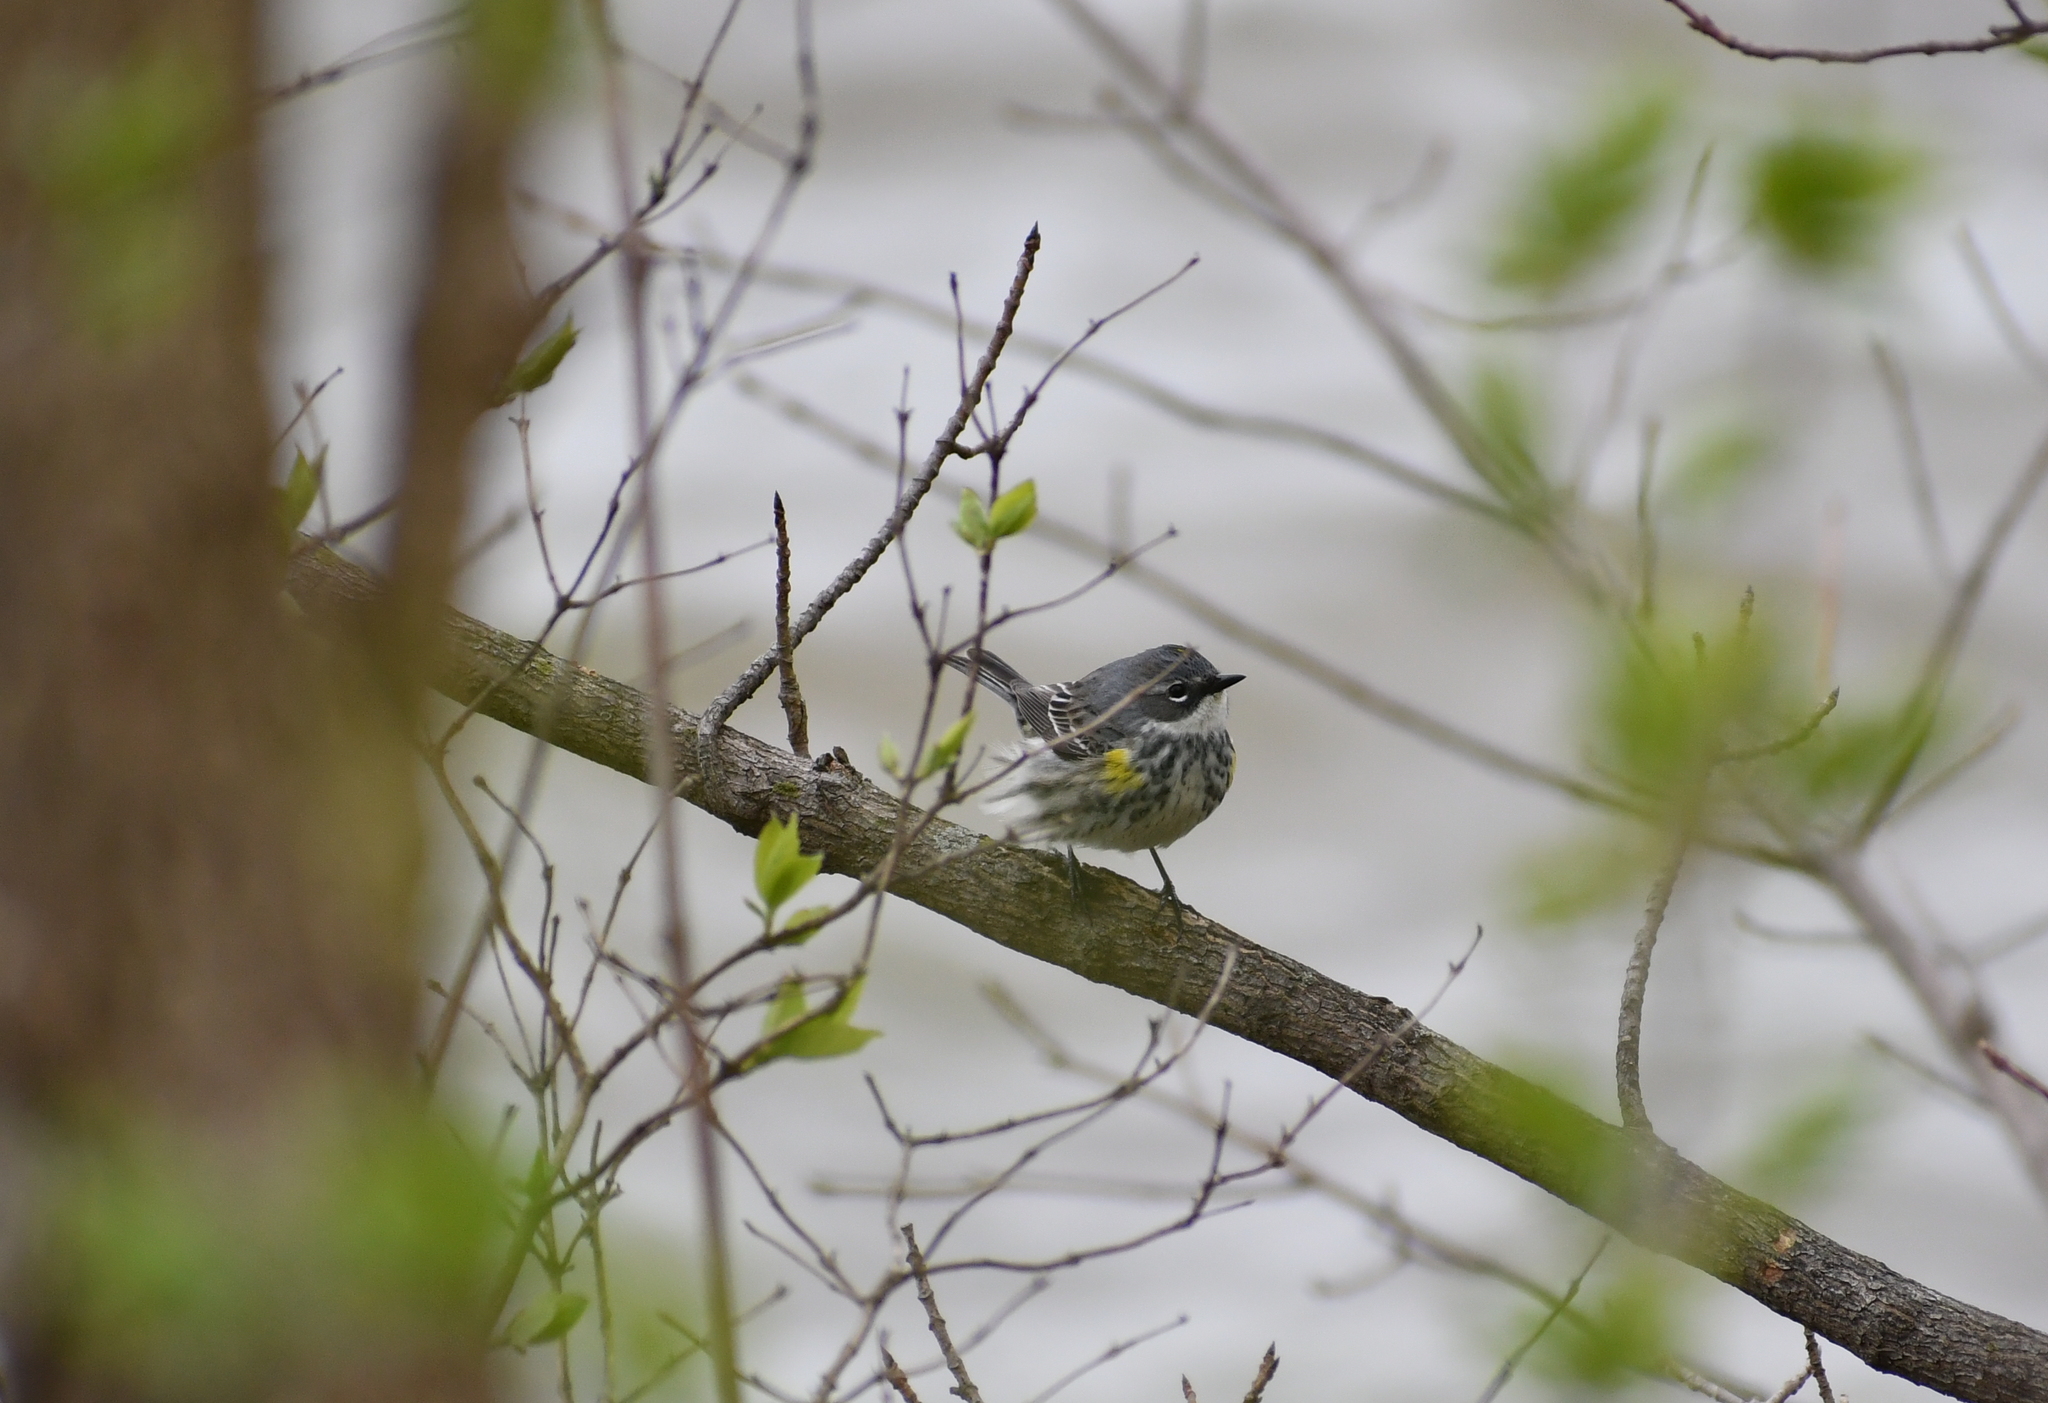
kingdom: Animalia
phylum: Chordata
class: Aves
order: Passeriformes
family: Parulidae
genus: Setophaga
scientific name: Setophaga coronata
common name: Myrtle warbler
